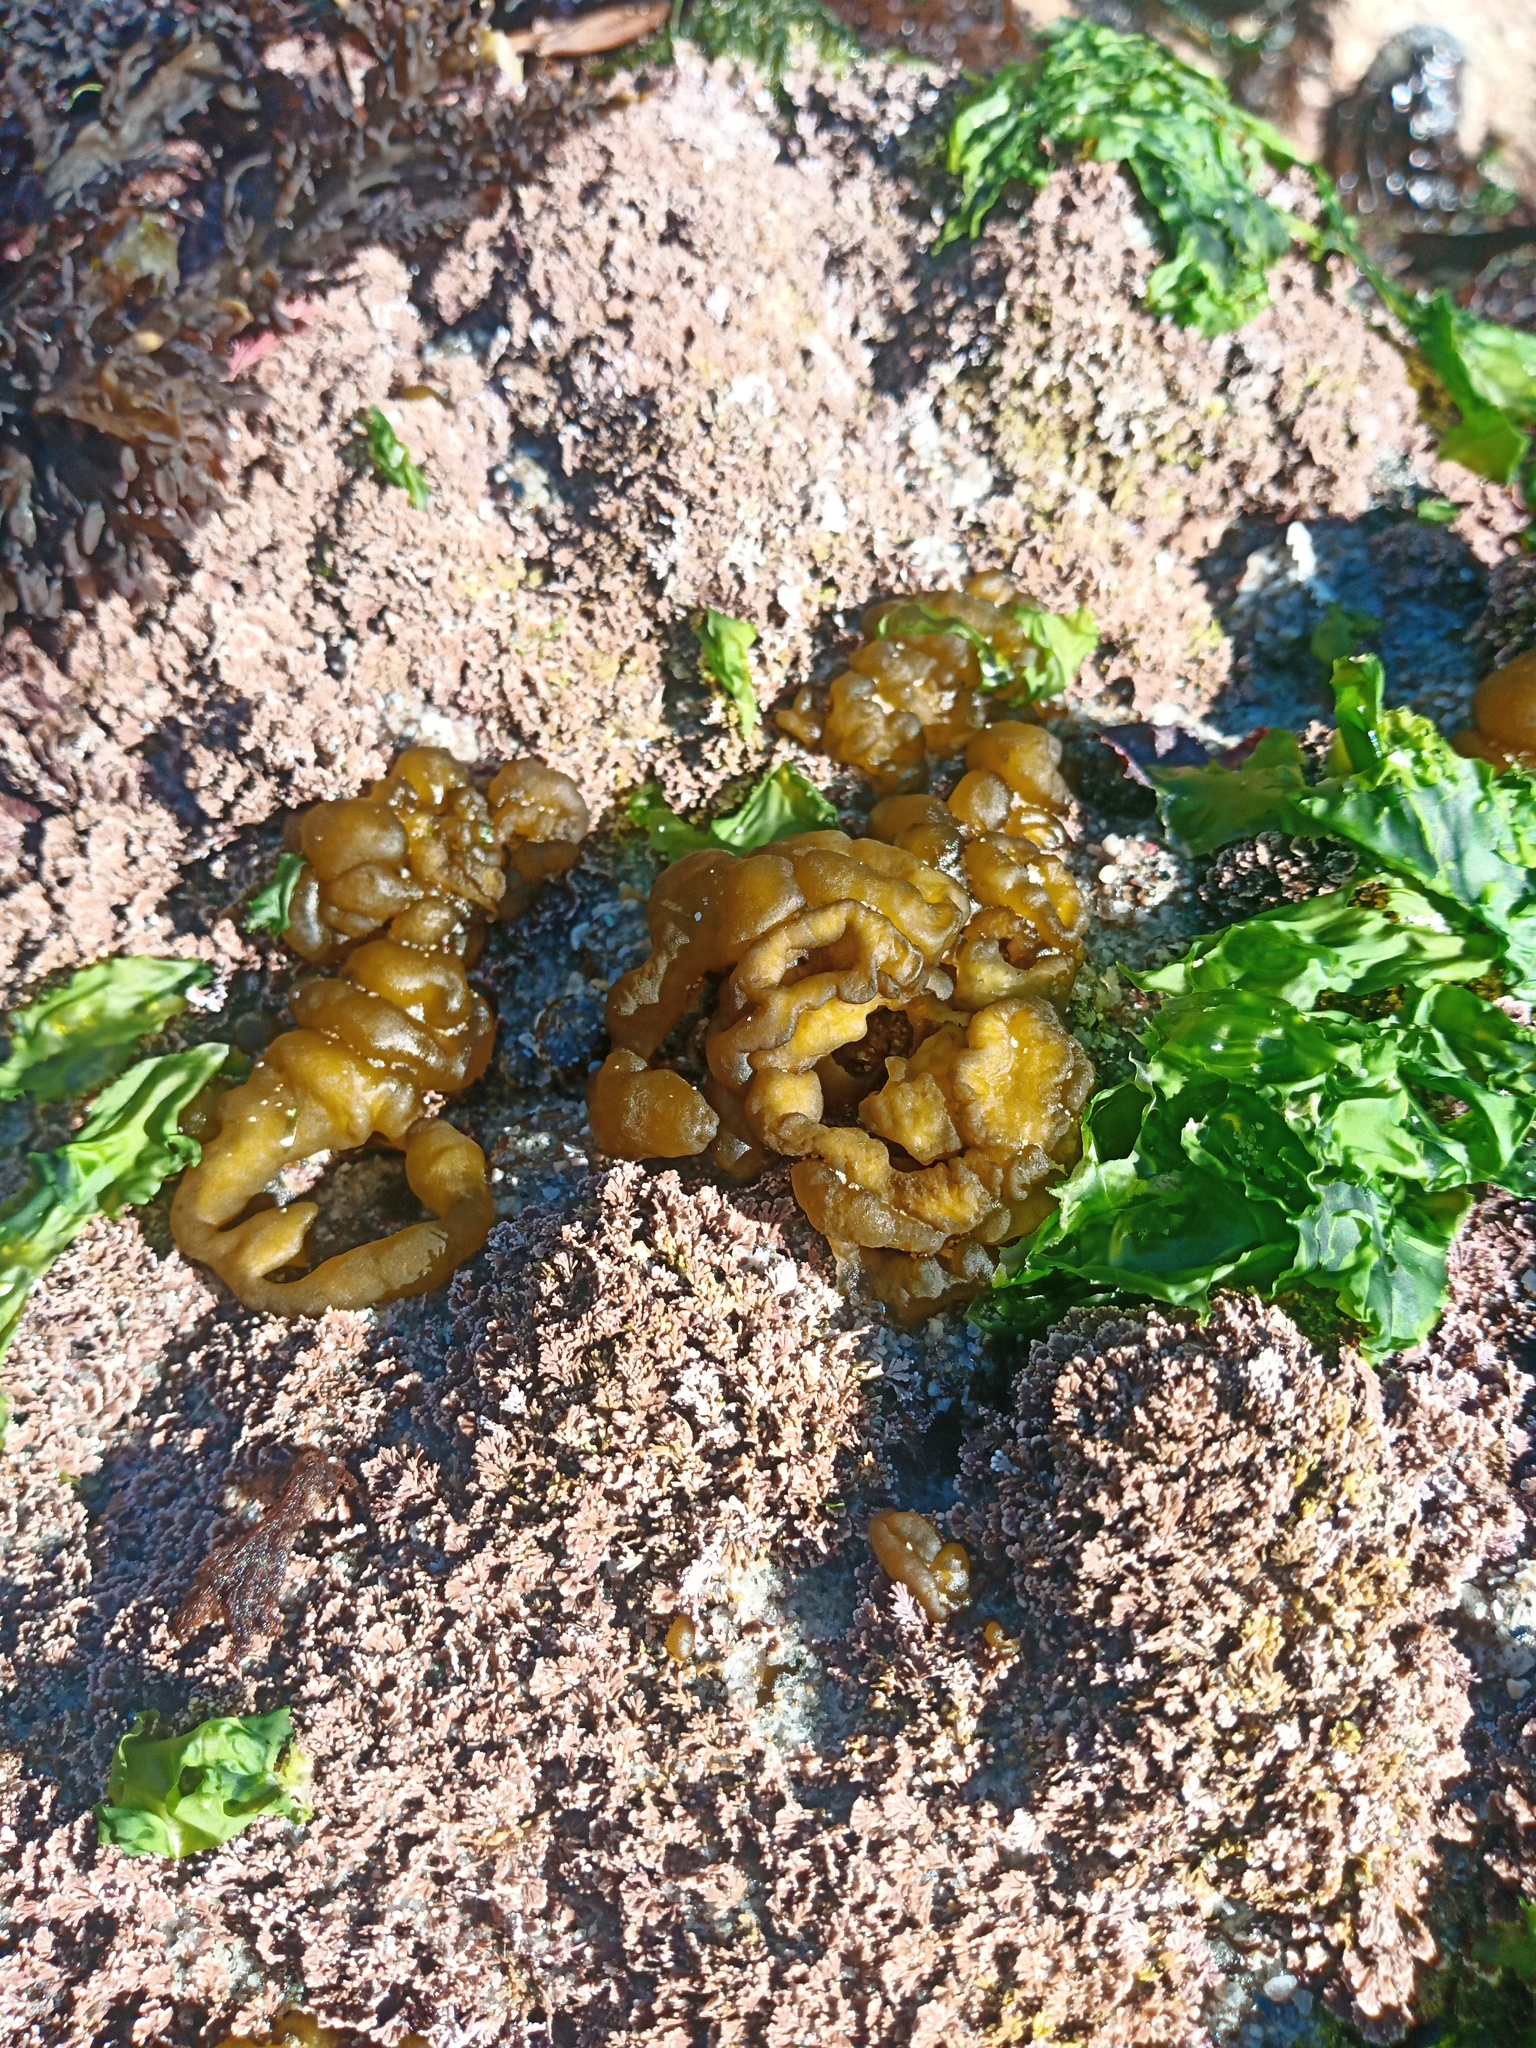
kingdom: Chromista
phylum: Ochrophyta
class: Phaeophyceae
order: Ectocarpales
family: Chordariaceae
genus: Leathesia
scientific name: Leathesia marina
